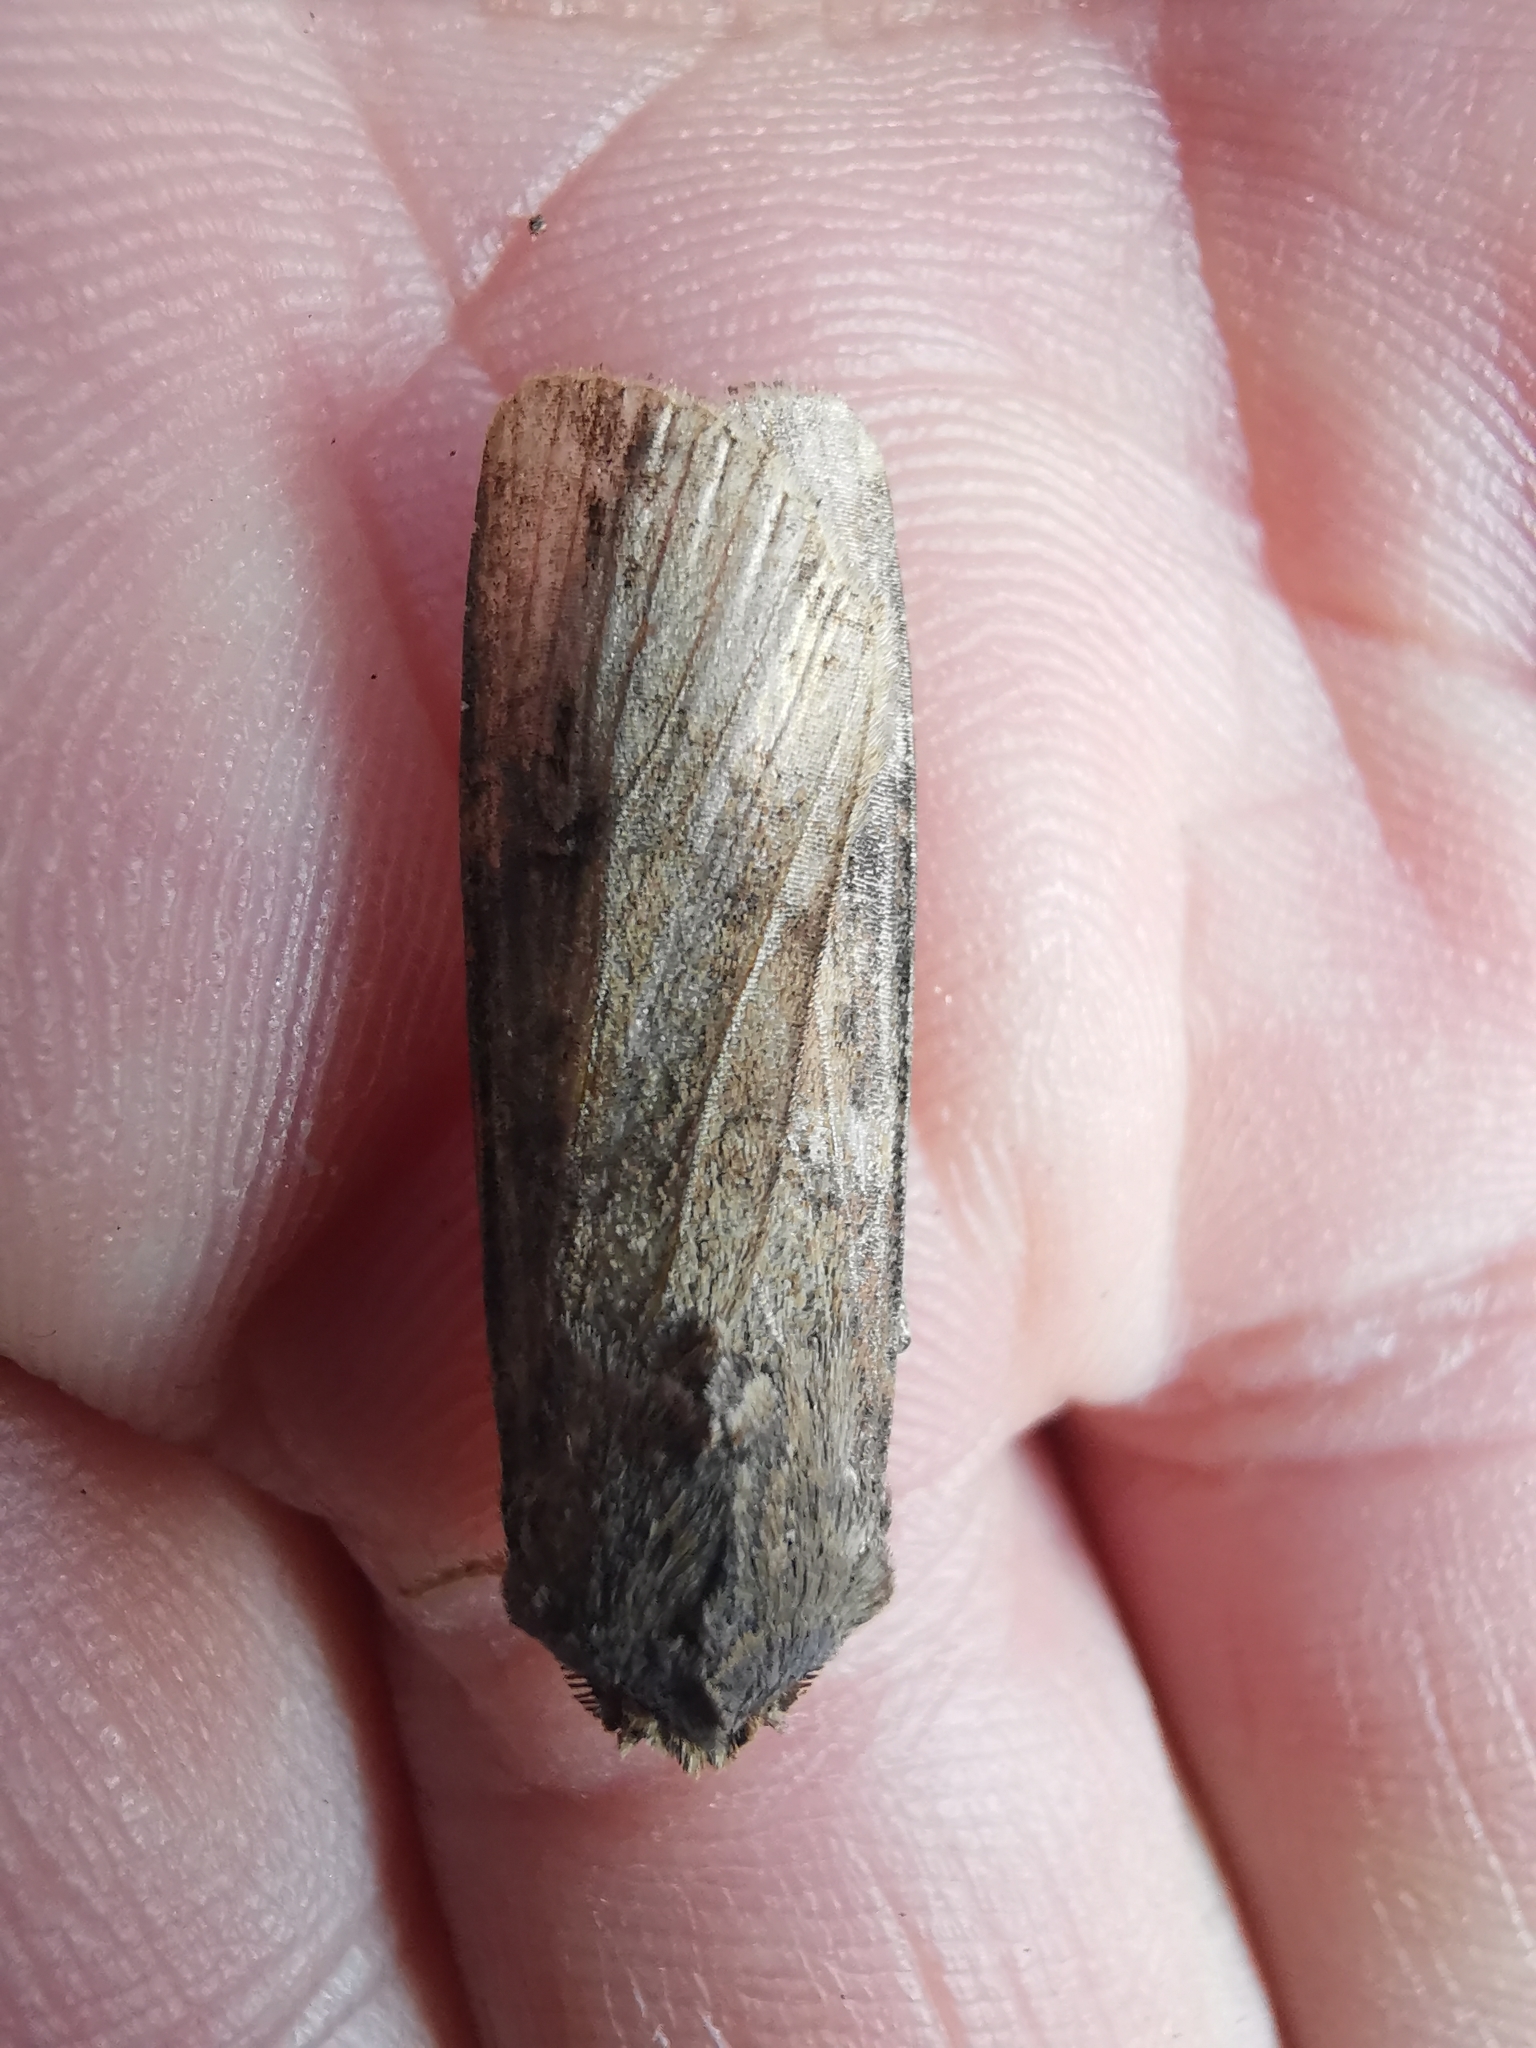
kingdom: Animalia
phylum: Arthropoda
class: Insecta
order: Lepidoptera
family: Noctuidae
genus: Agrotis
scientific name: Agrotis ipsilon
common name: Dark sword-grass
